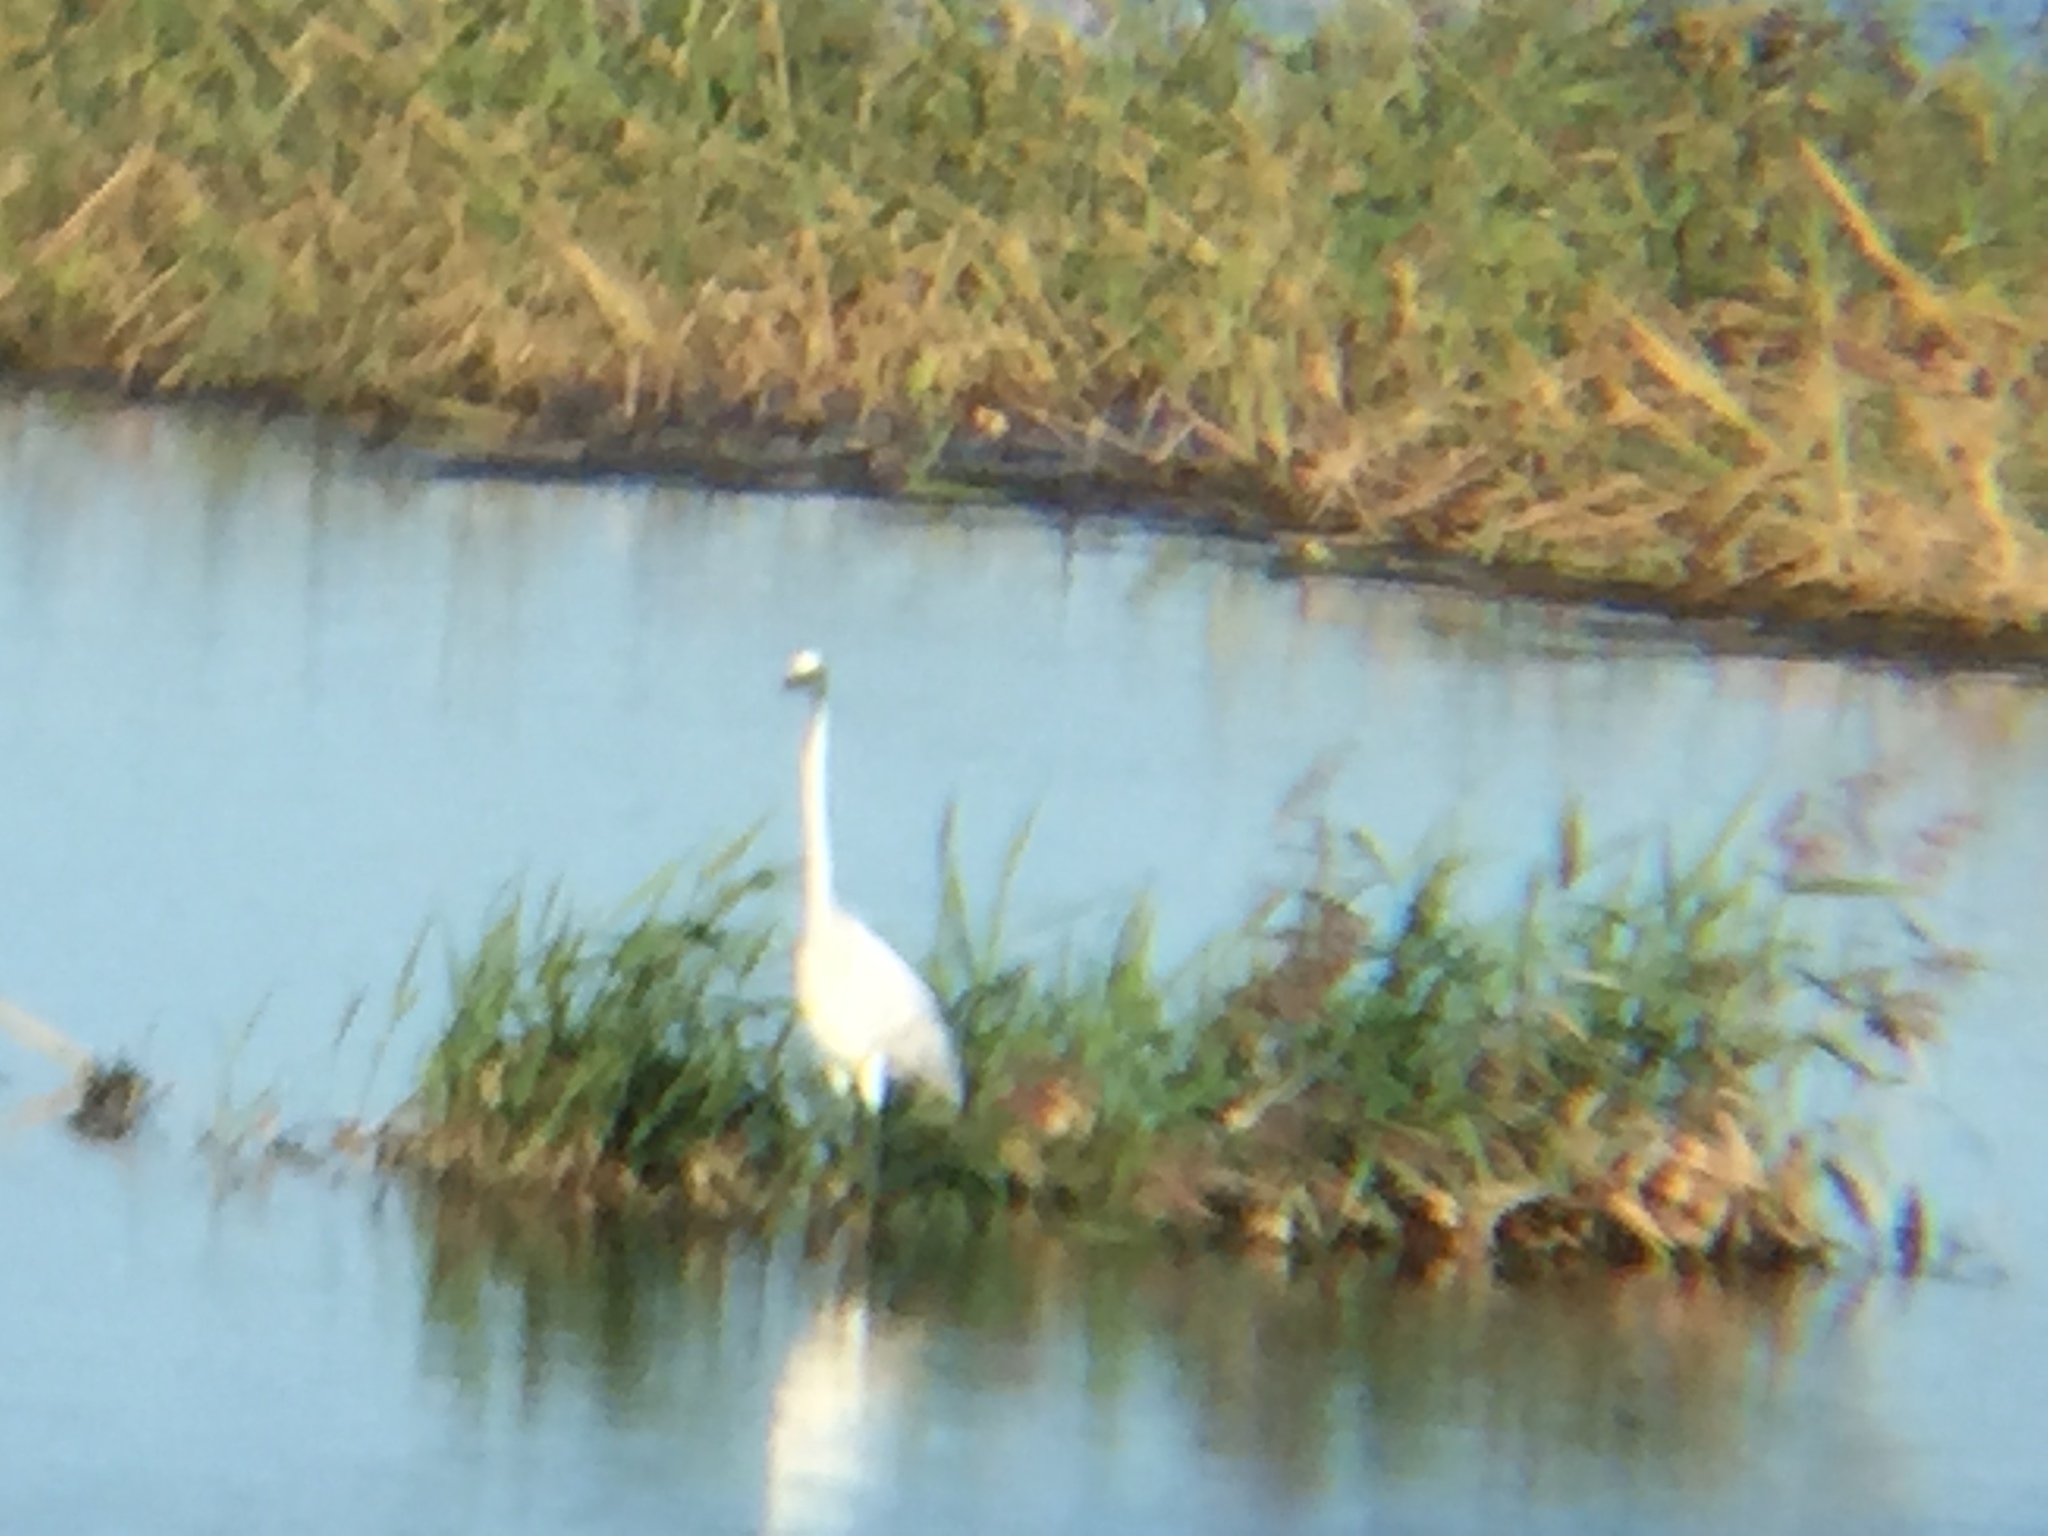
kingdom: Animalia
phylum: Chordata
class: Aves
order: Pelecaniformes
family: Ardeidae
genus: Ardea
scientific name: Ardea alba
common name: Great egret
